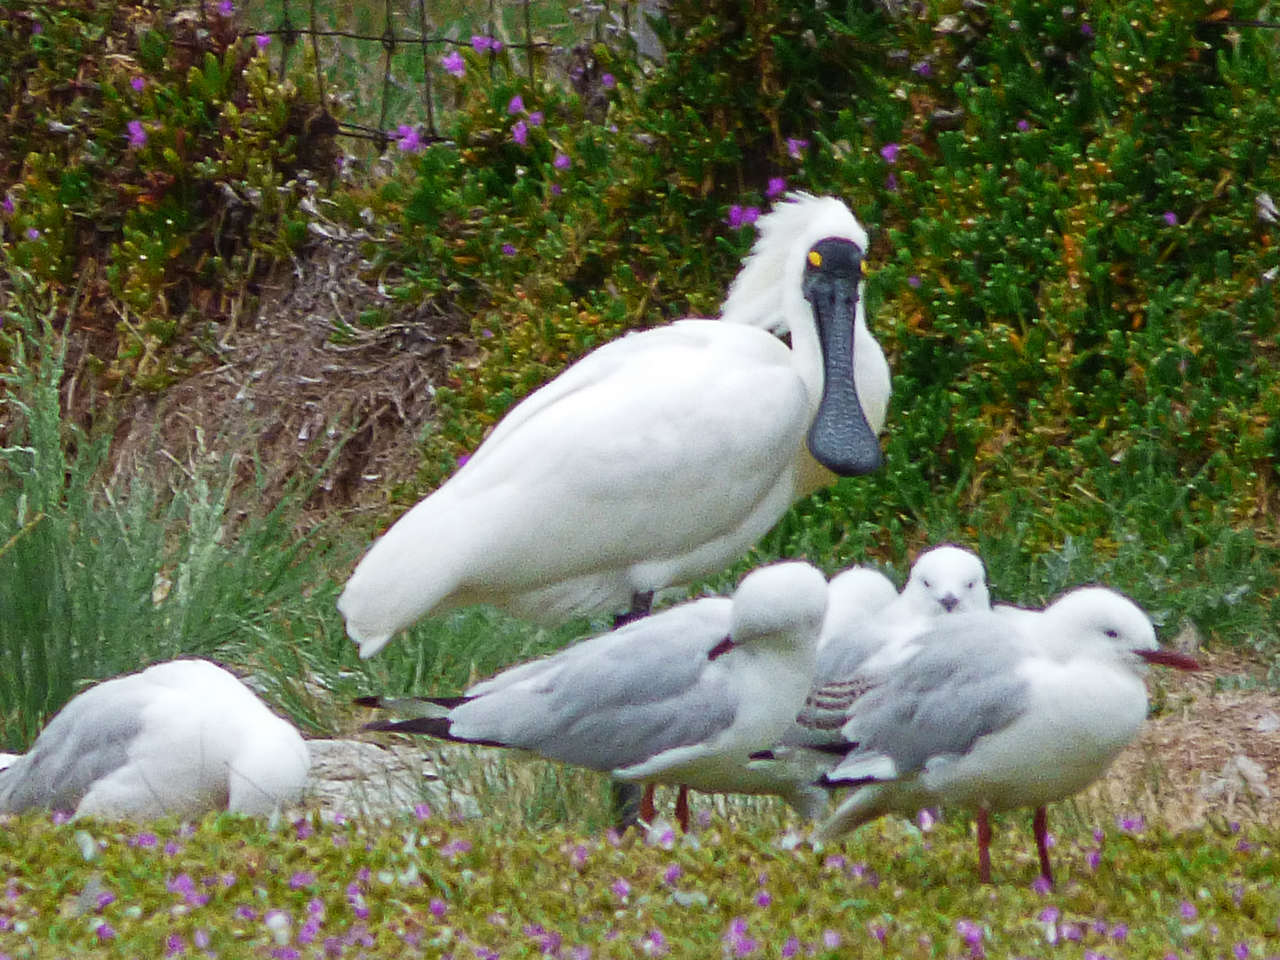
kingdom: Animalia
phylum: Chordata
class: Aves
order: Charadriiformes
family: Laridae
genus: Chroicocephalus
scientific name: Chroicocephalus novaehollandiae
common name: Silver gull
